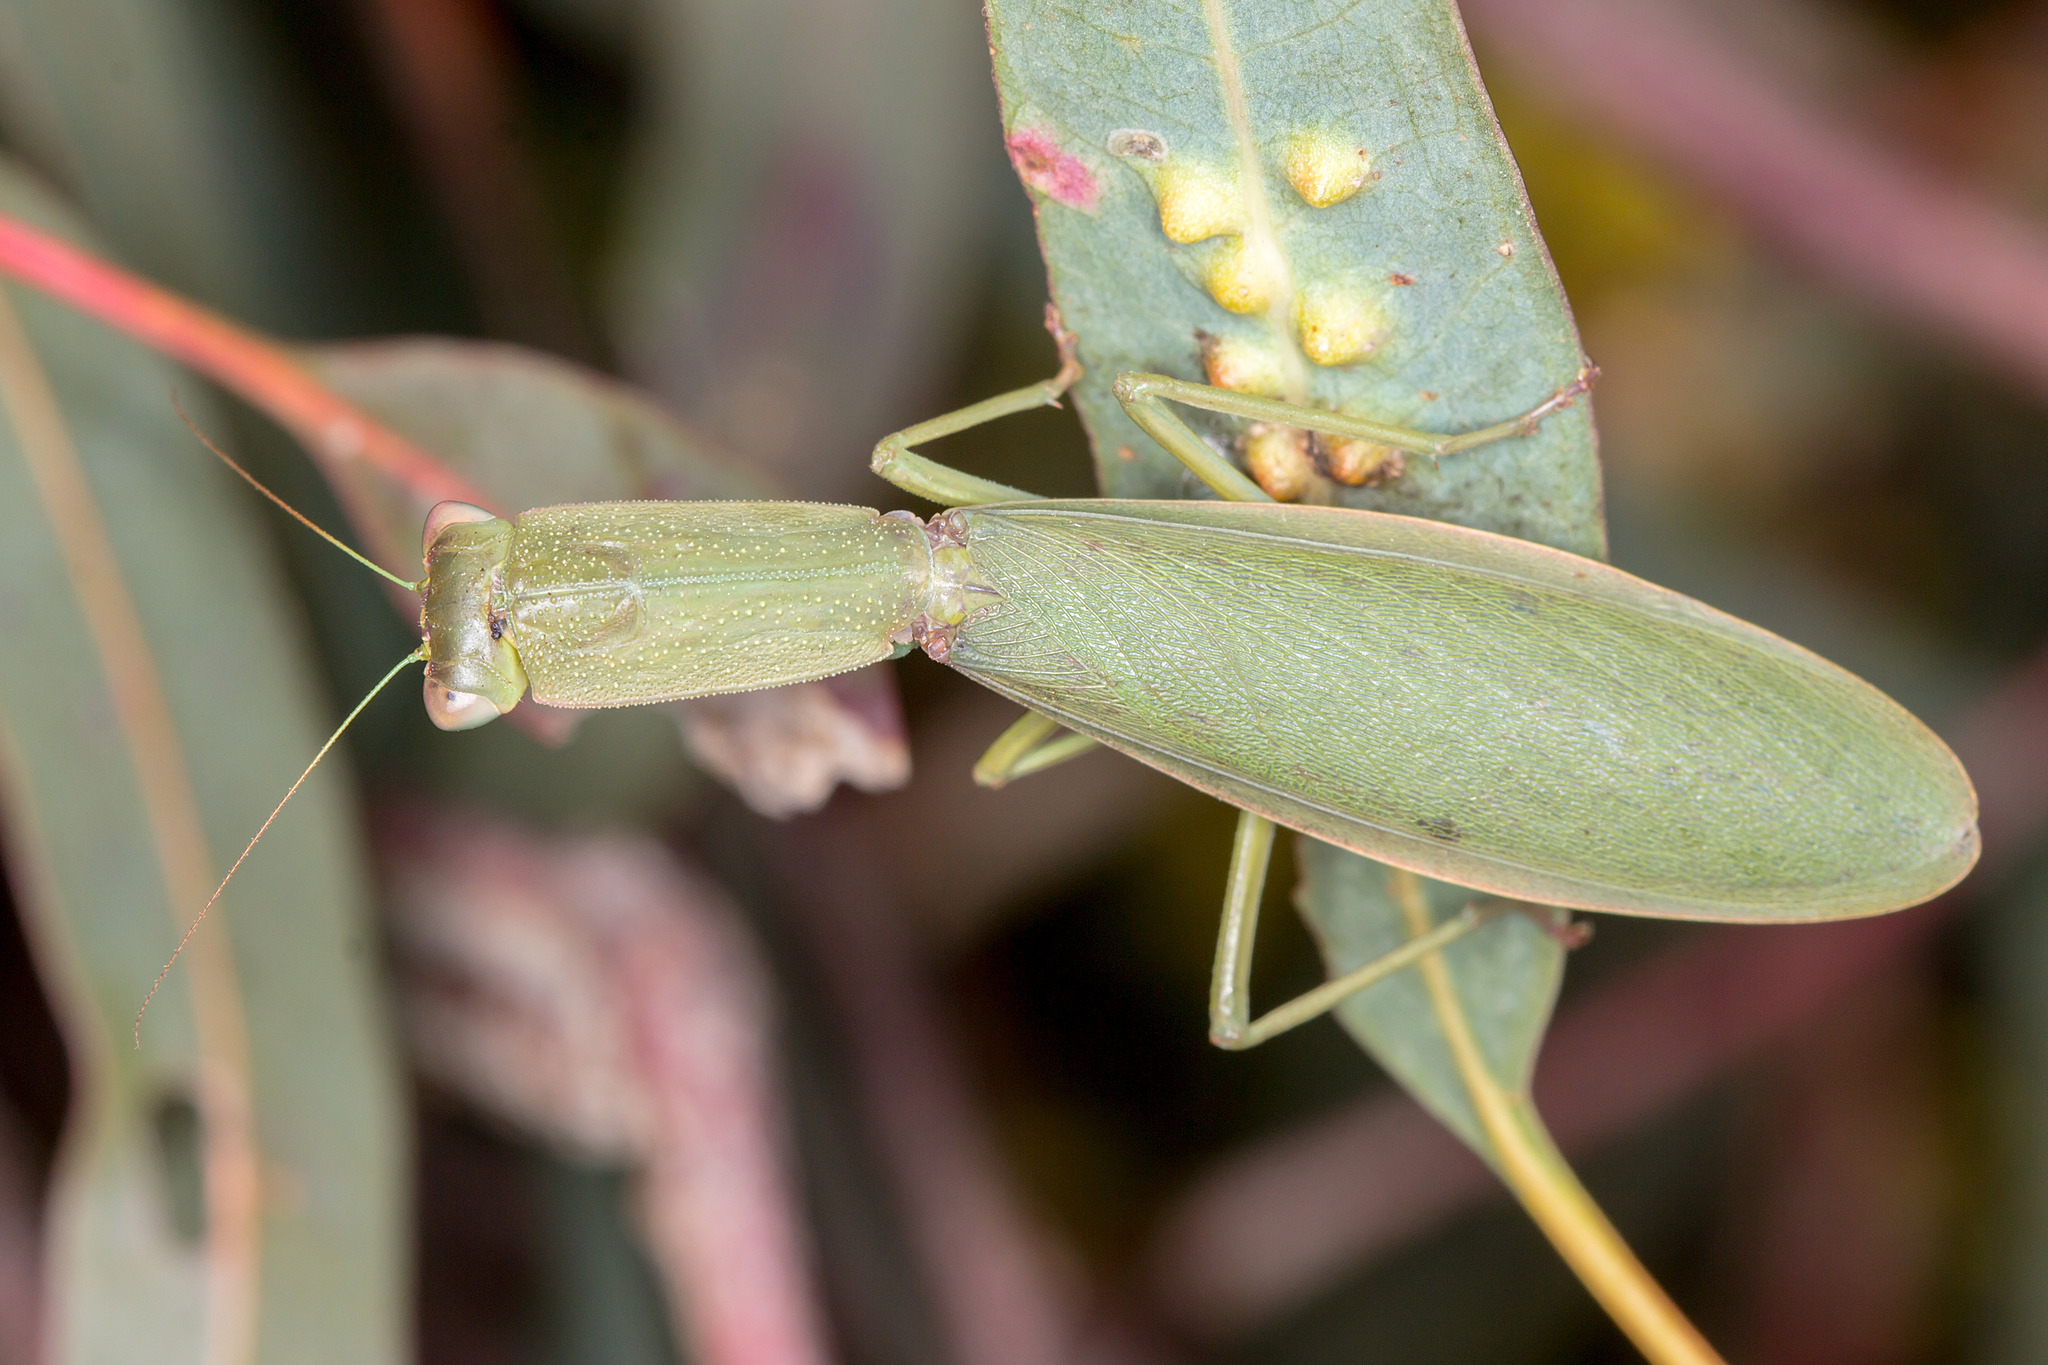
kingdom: Animalia
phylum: Arthropoda
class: Insecta
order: Mantodea
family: Mantidae
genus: Orthodera
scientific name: Orthodera ministralis
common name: Mantis
